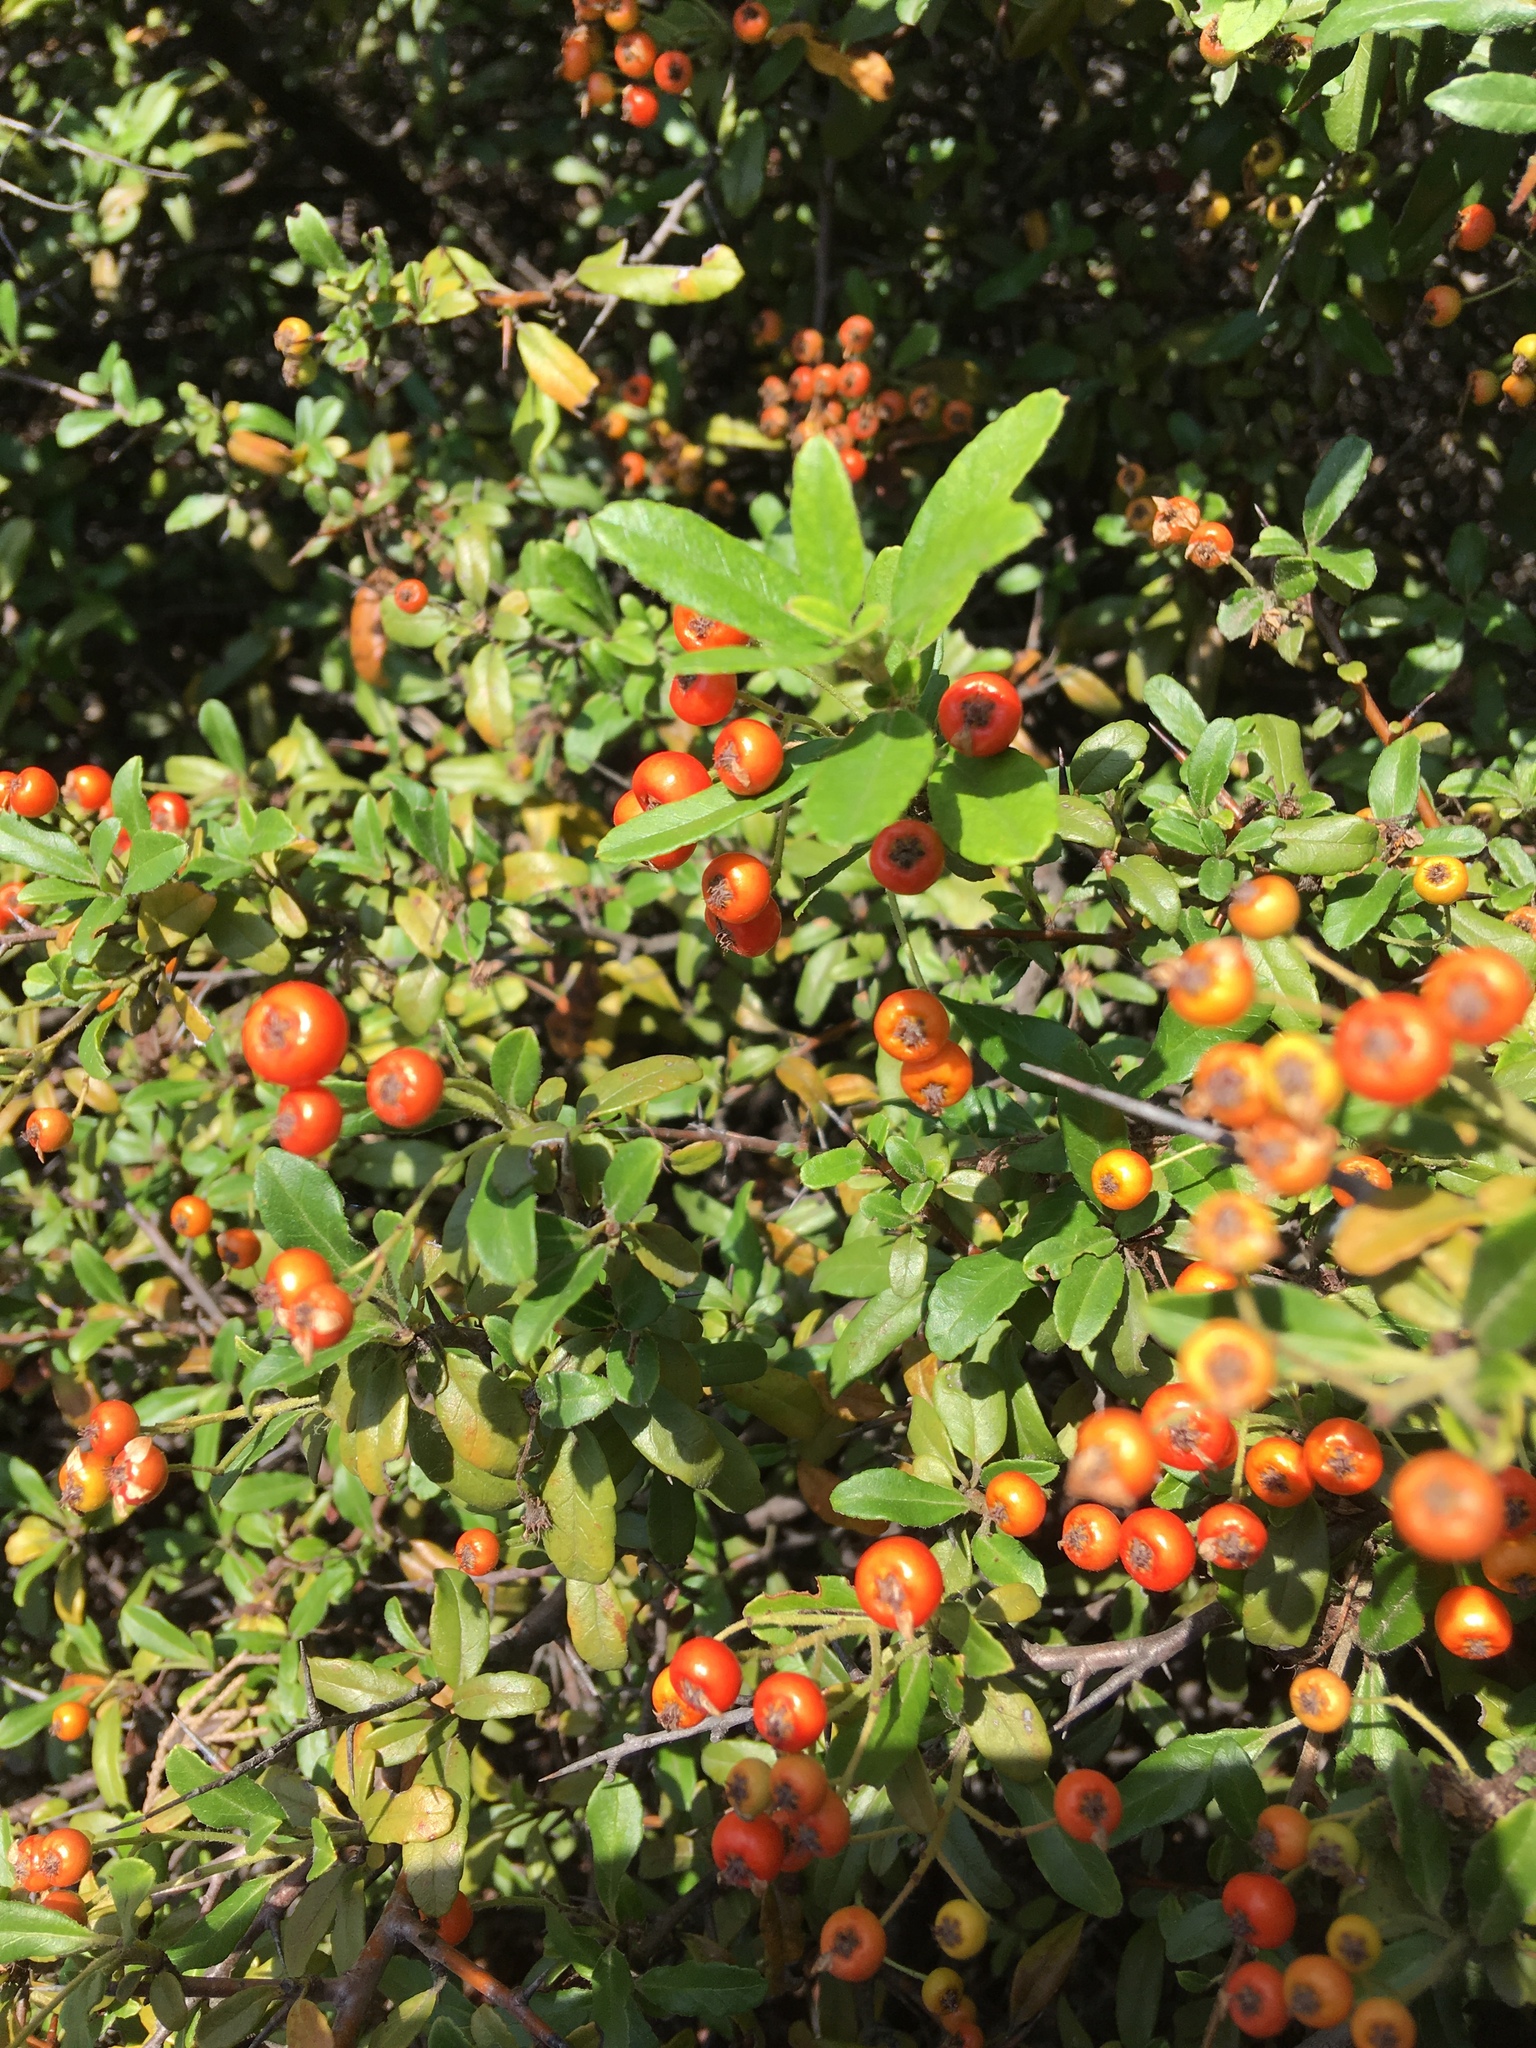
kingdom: Plantae
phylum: Tracheophyta
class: Magnoliopsida
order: Rosales
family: Rosaceae
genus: Pyracantha
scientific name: Pyracantha coccinea
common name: Firethorn
